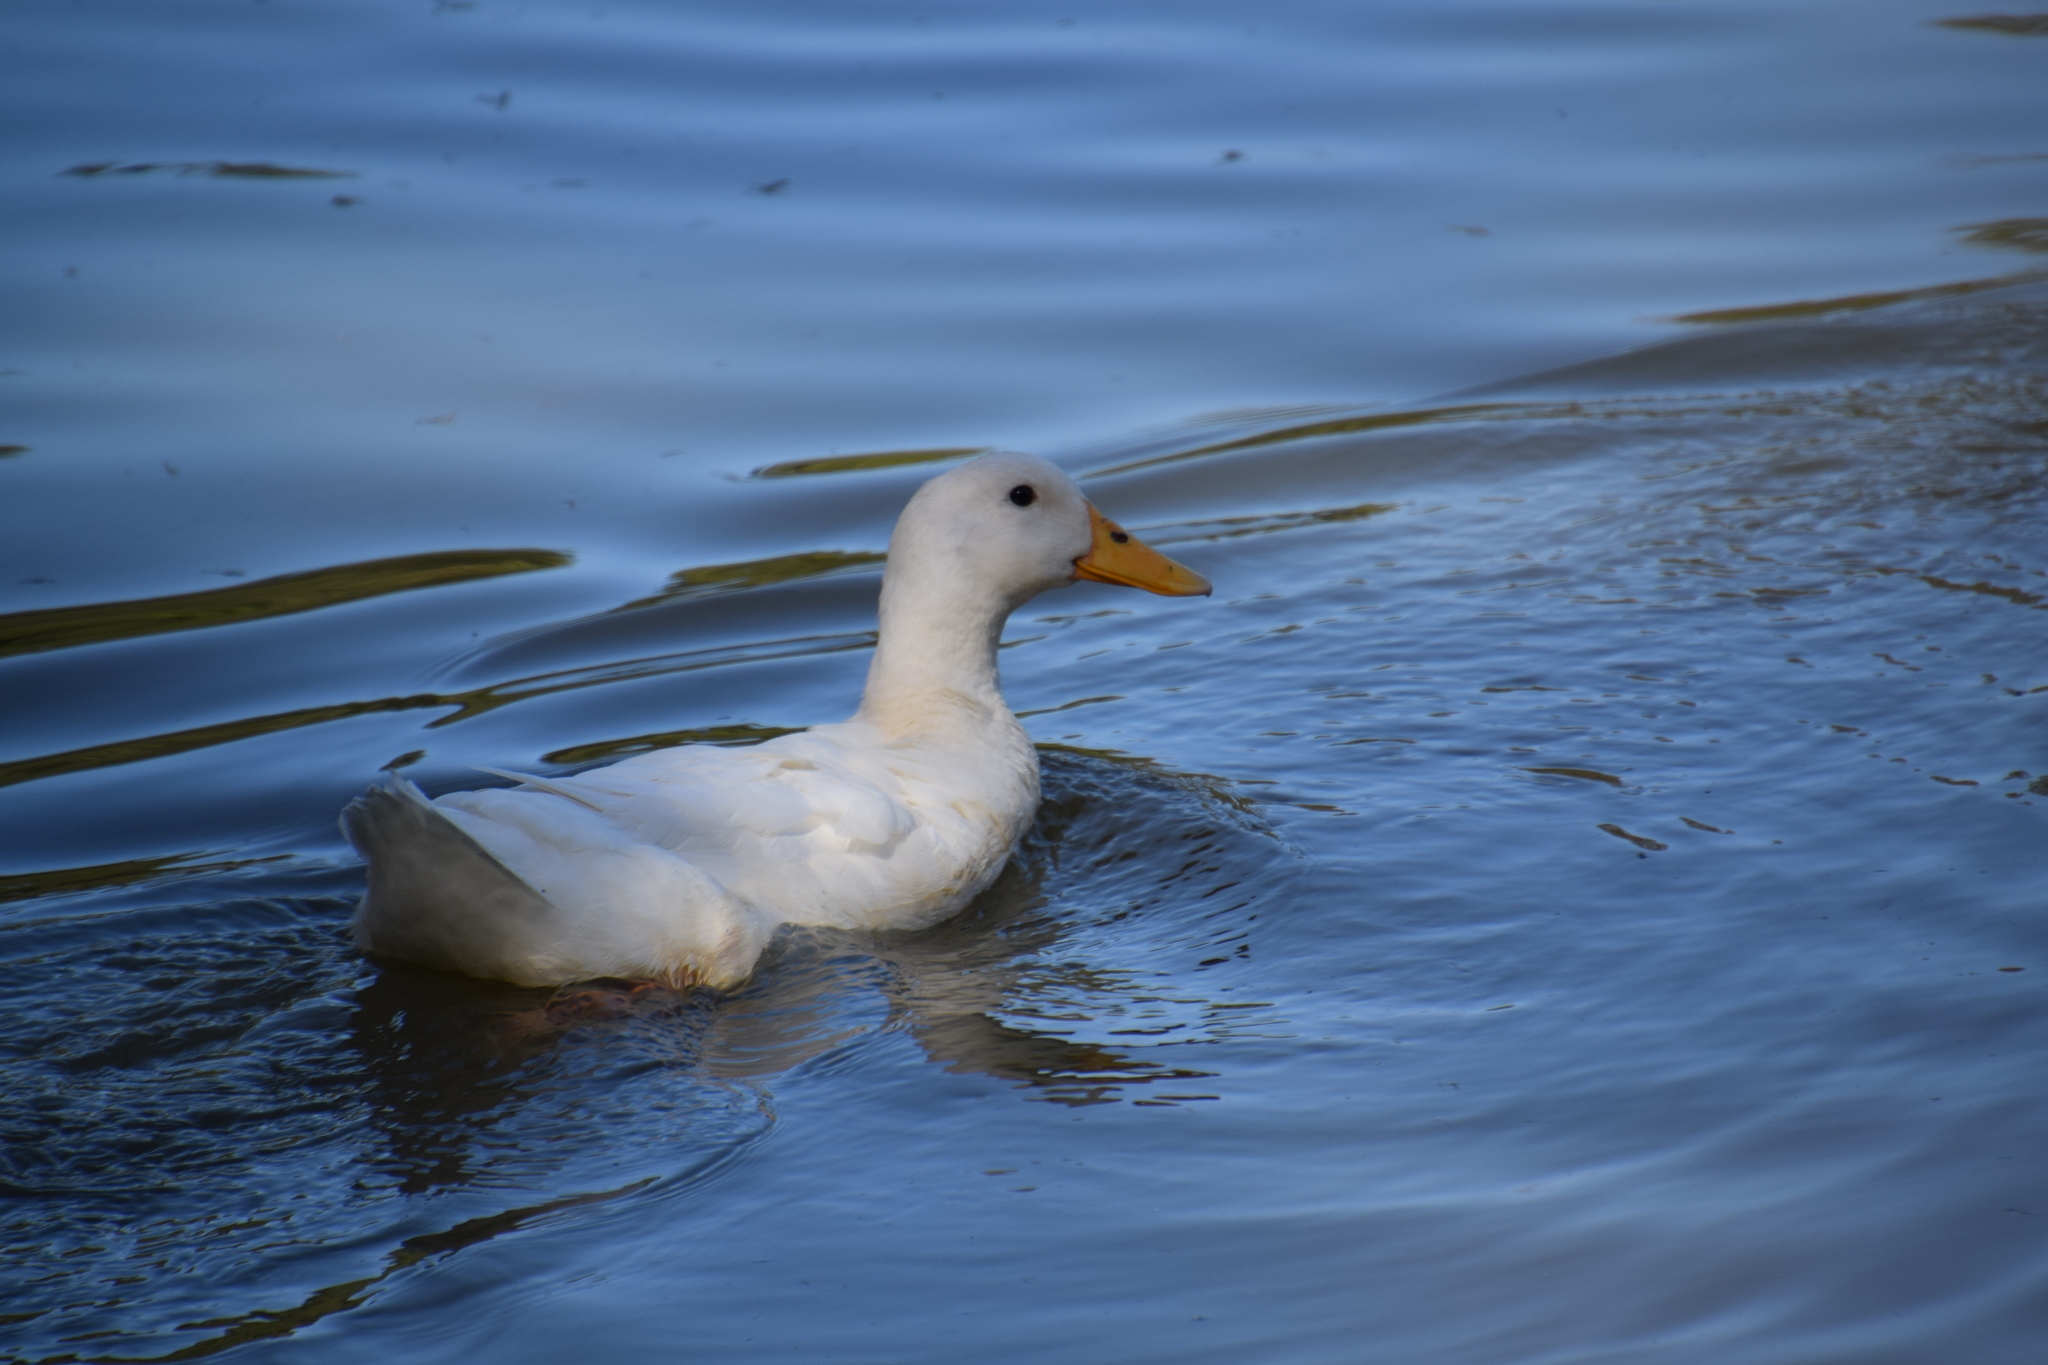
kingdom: Animalia
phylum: Chordata
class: Aves
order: Anseriformes
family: Anatidae
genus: Anas
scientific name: Anas platyrhynchos
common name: Mallard
